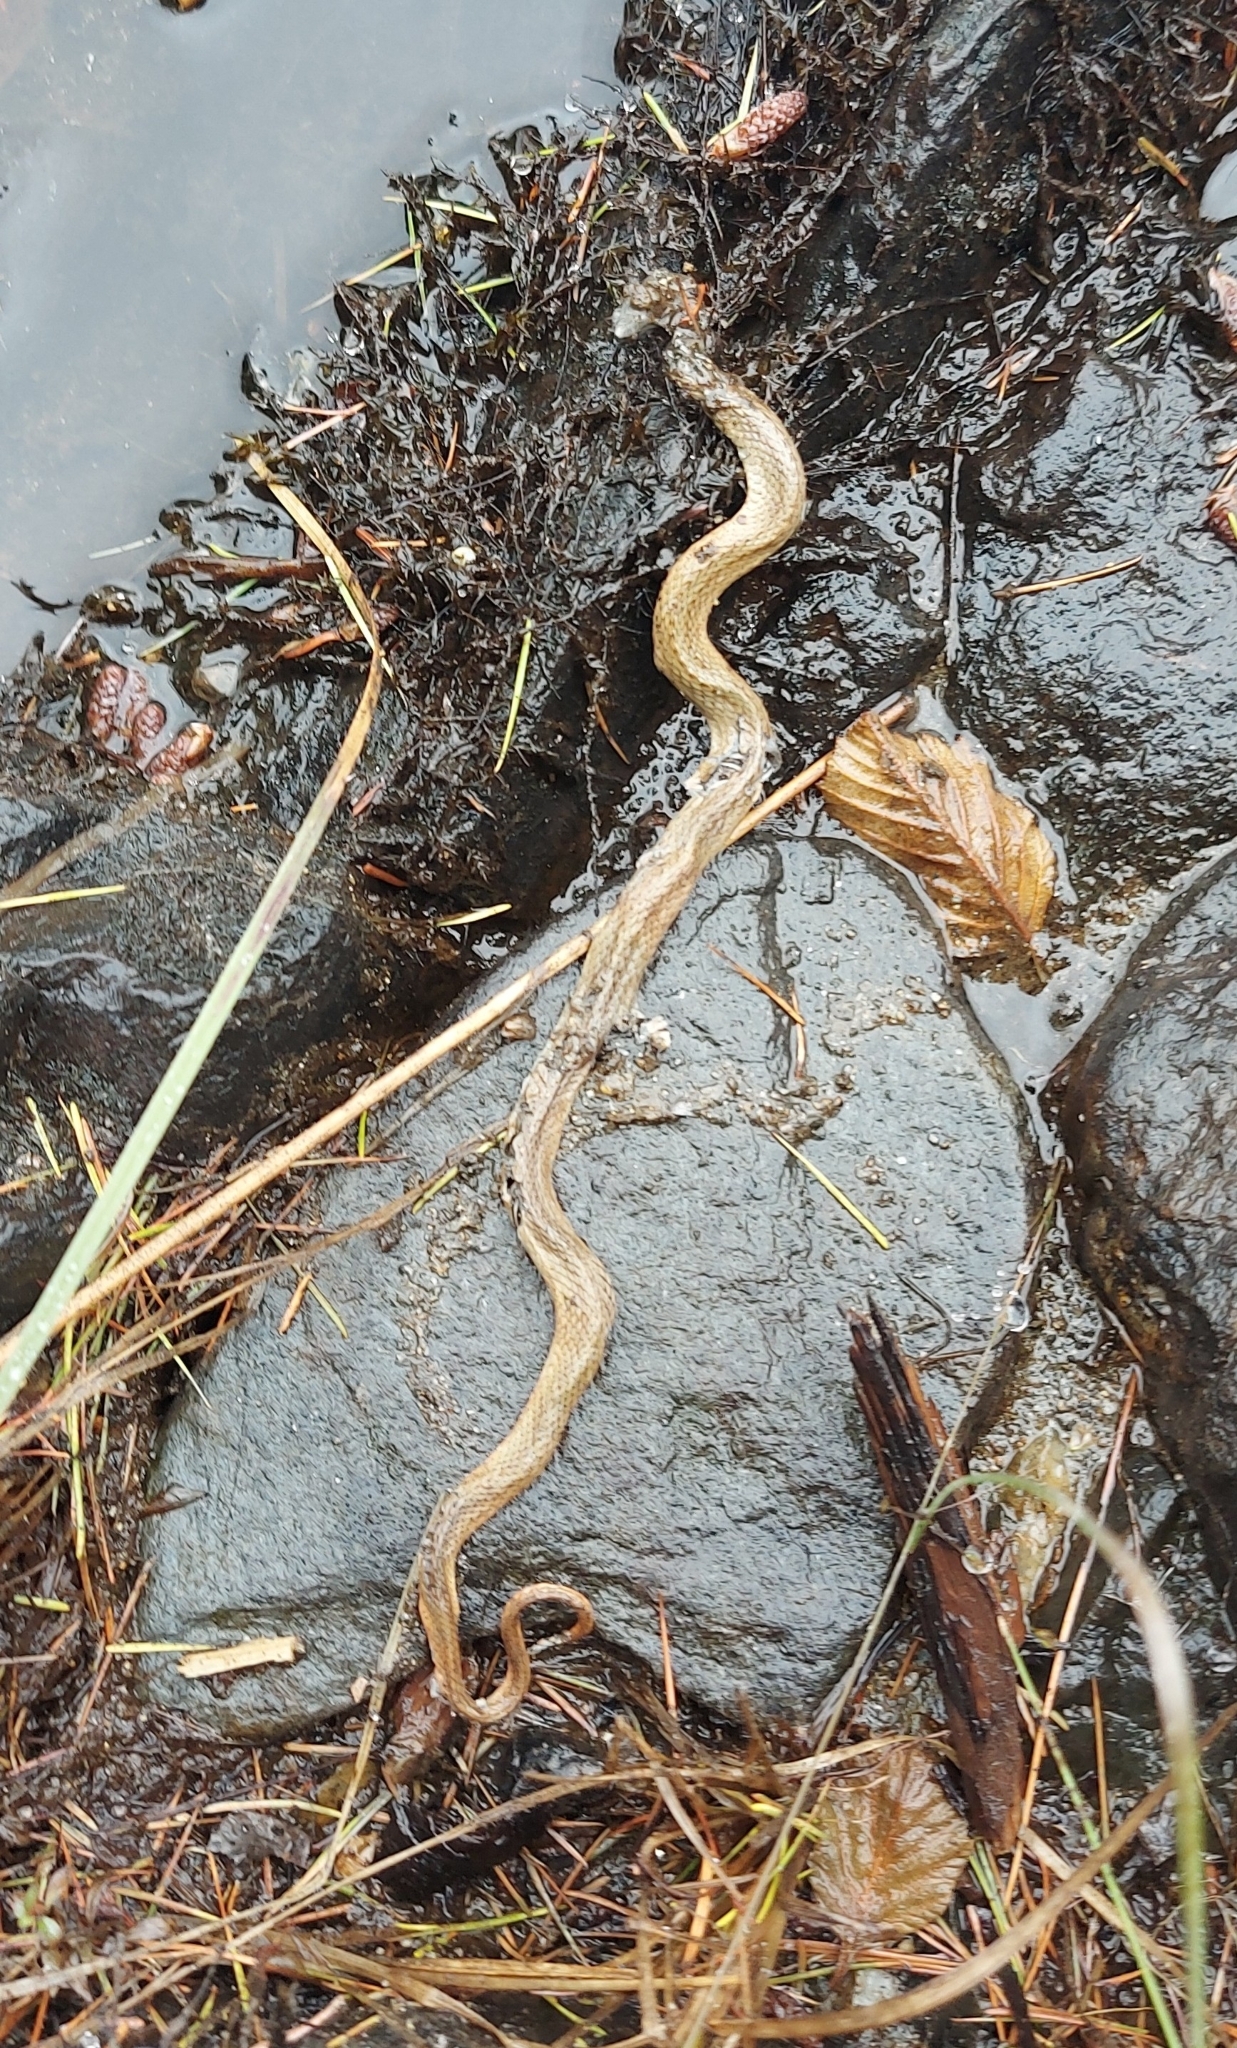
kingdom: Animalia
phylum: Chordata
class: Squamata
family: Colubridae
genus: Storeria
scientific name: Storeria occipitomaculata
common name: Redbelly snake
